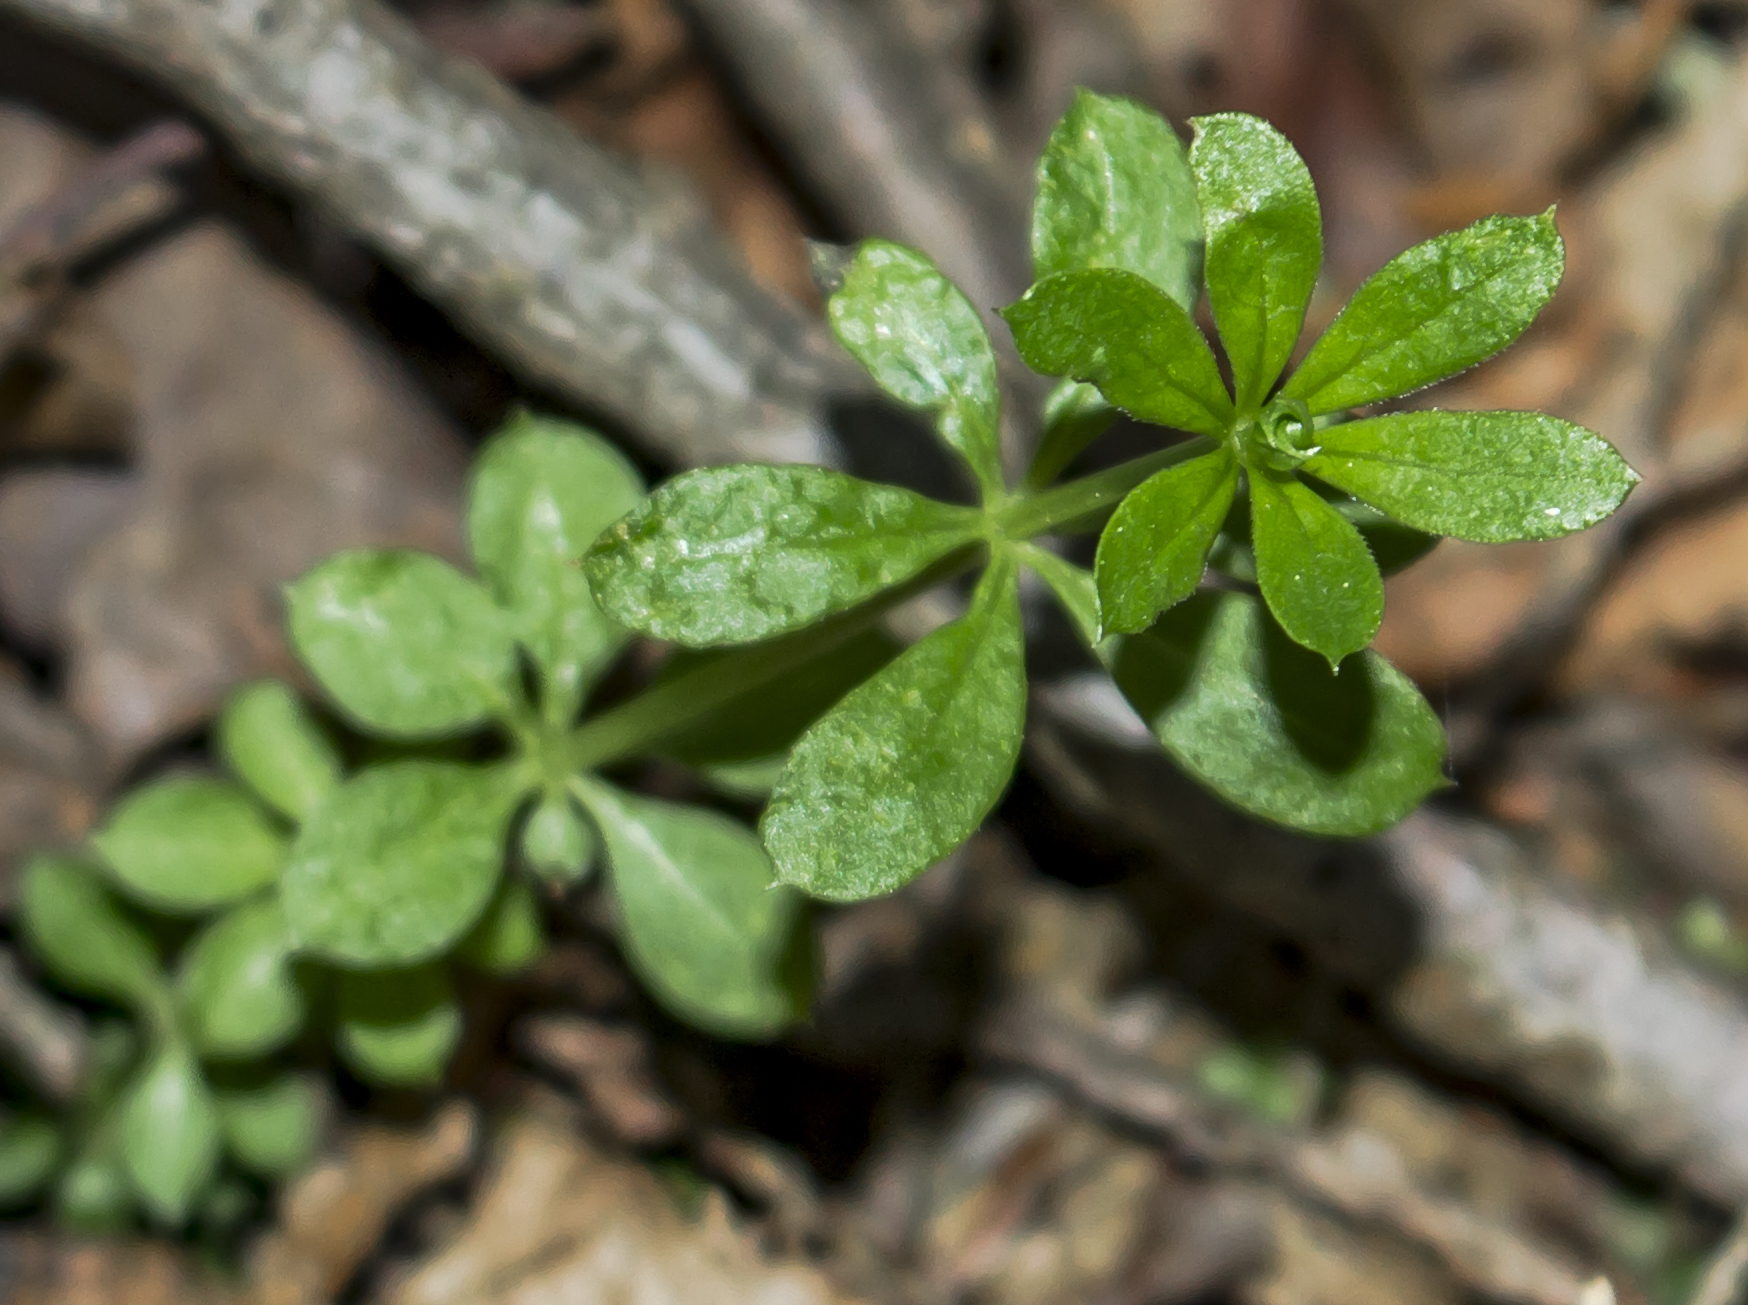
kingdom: Plantae
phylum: Tracheophyta
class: Magnoliopsida
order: Gentianales
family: Rubiaceae
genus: Galium
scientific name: Galium triflorum
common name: Fragrant bedstraw
